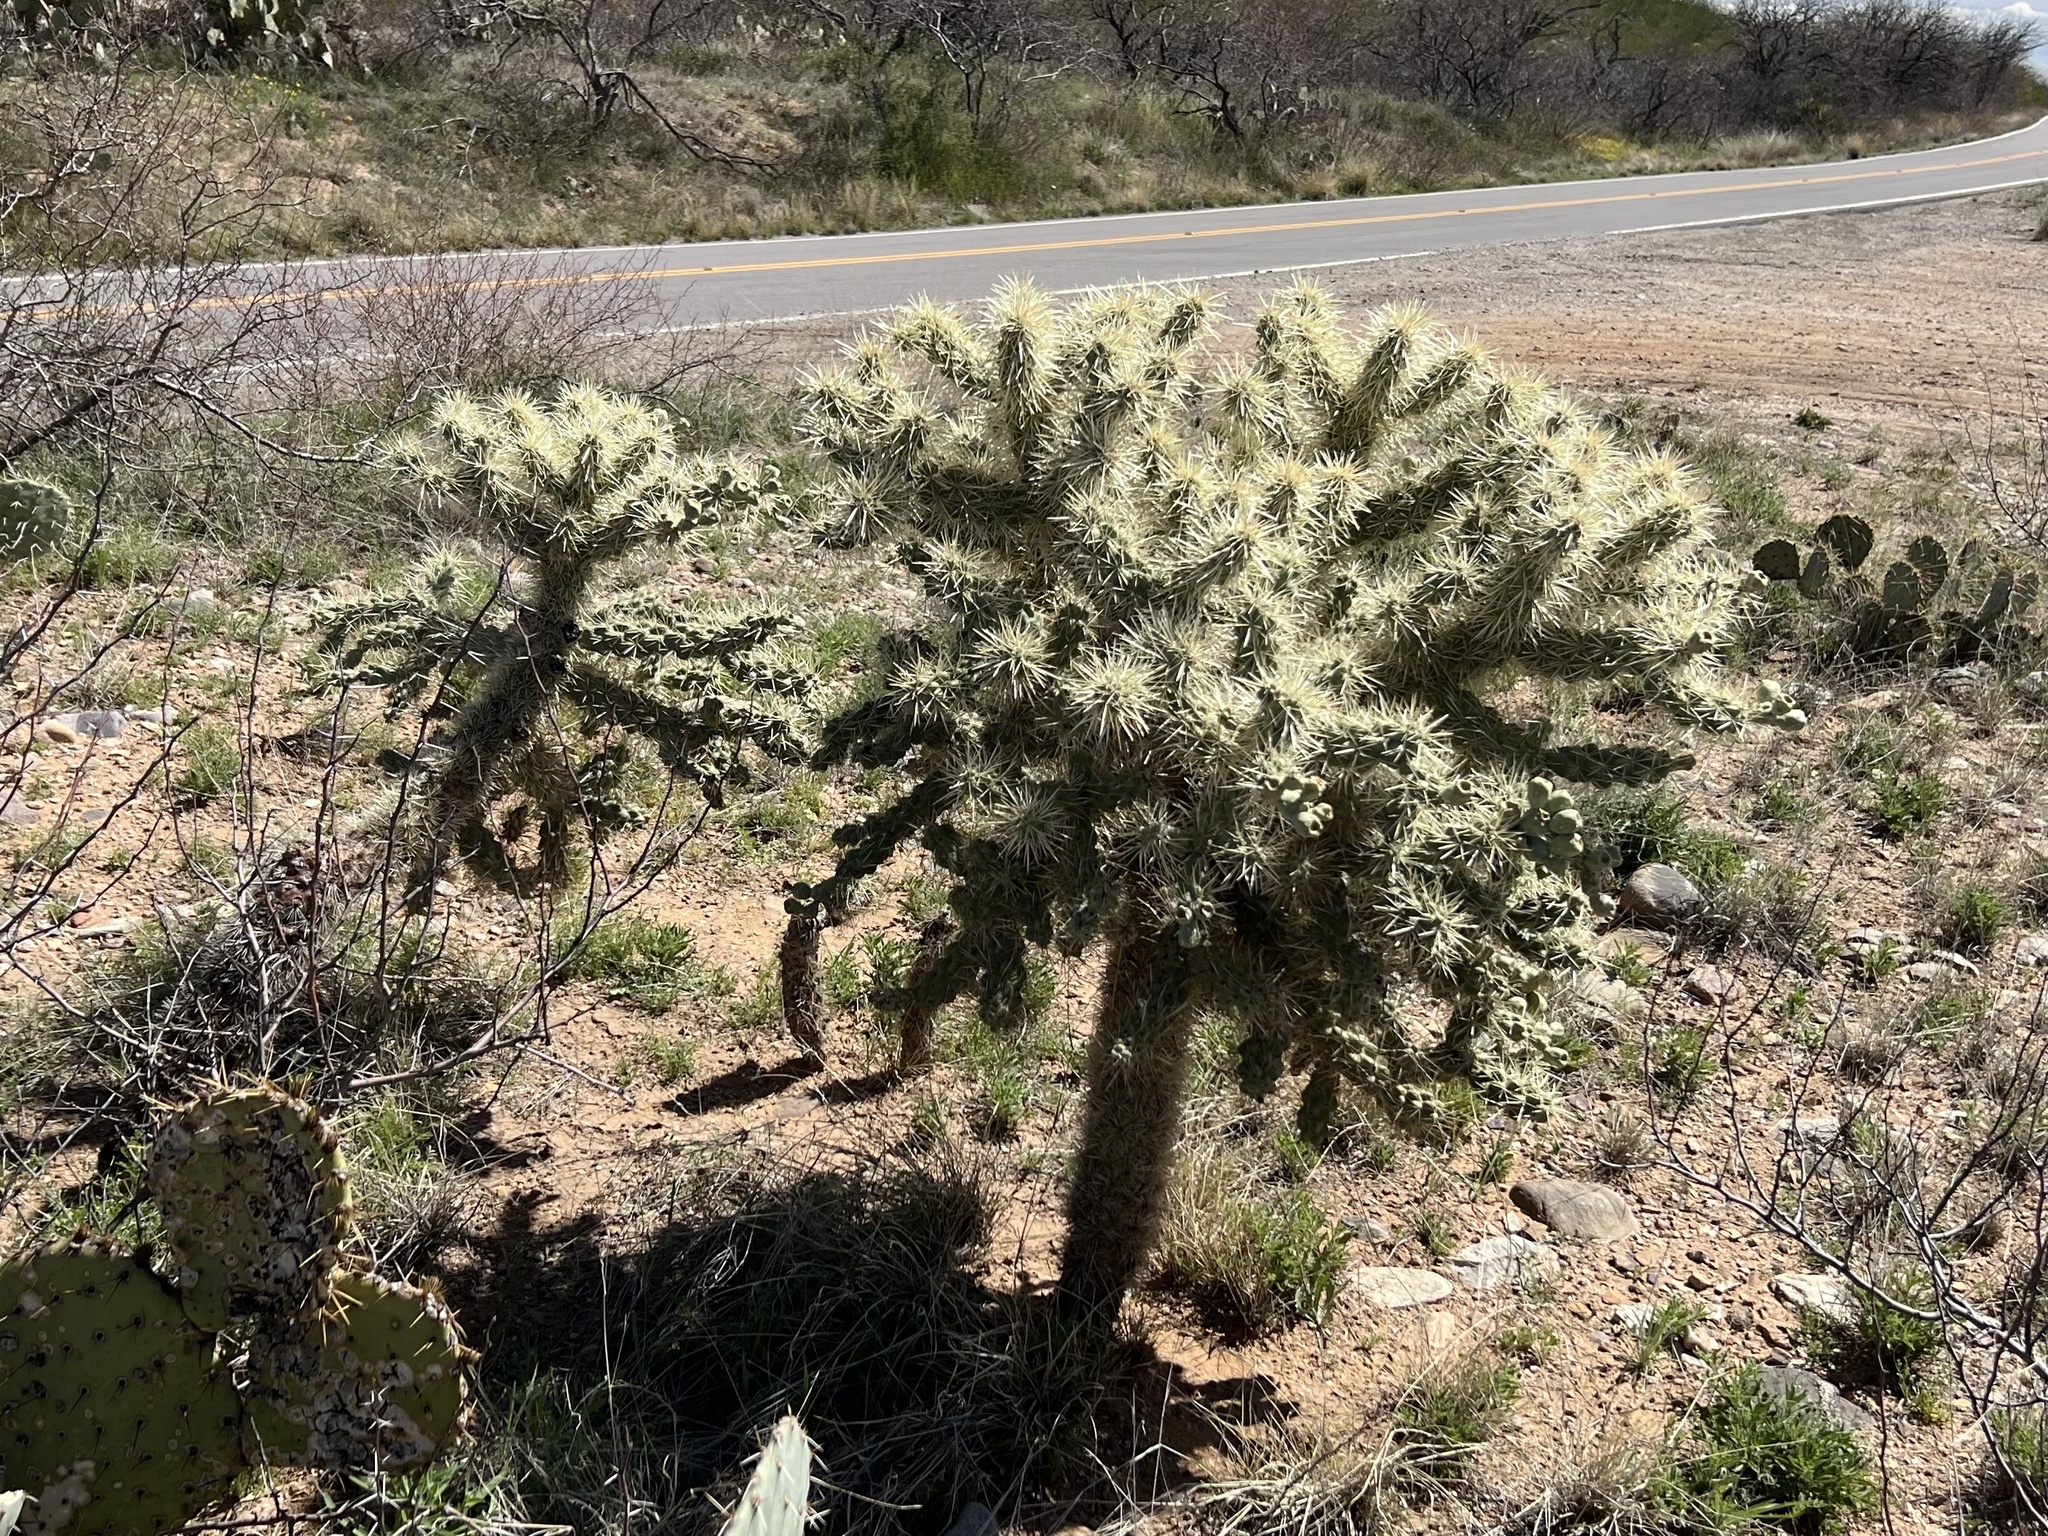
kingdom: Plantae
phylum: Tracheophyta
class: Magnoliopsida
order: Caryophyllales
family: Cactaceae
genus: Cylindropuntia
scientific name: Cylindropuntia fulgida
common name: Jumping cholla
